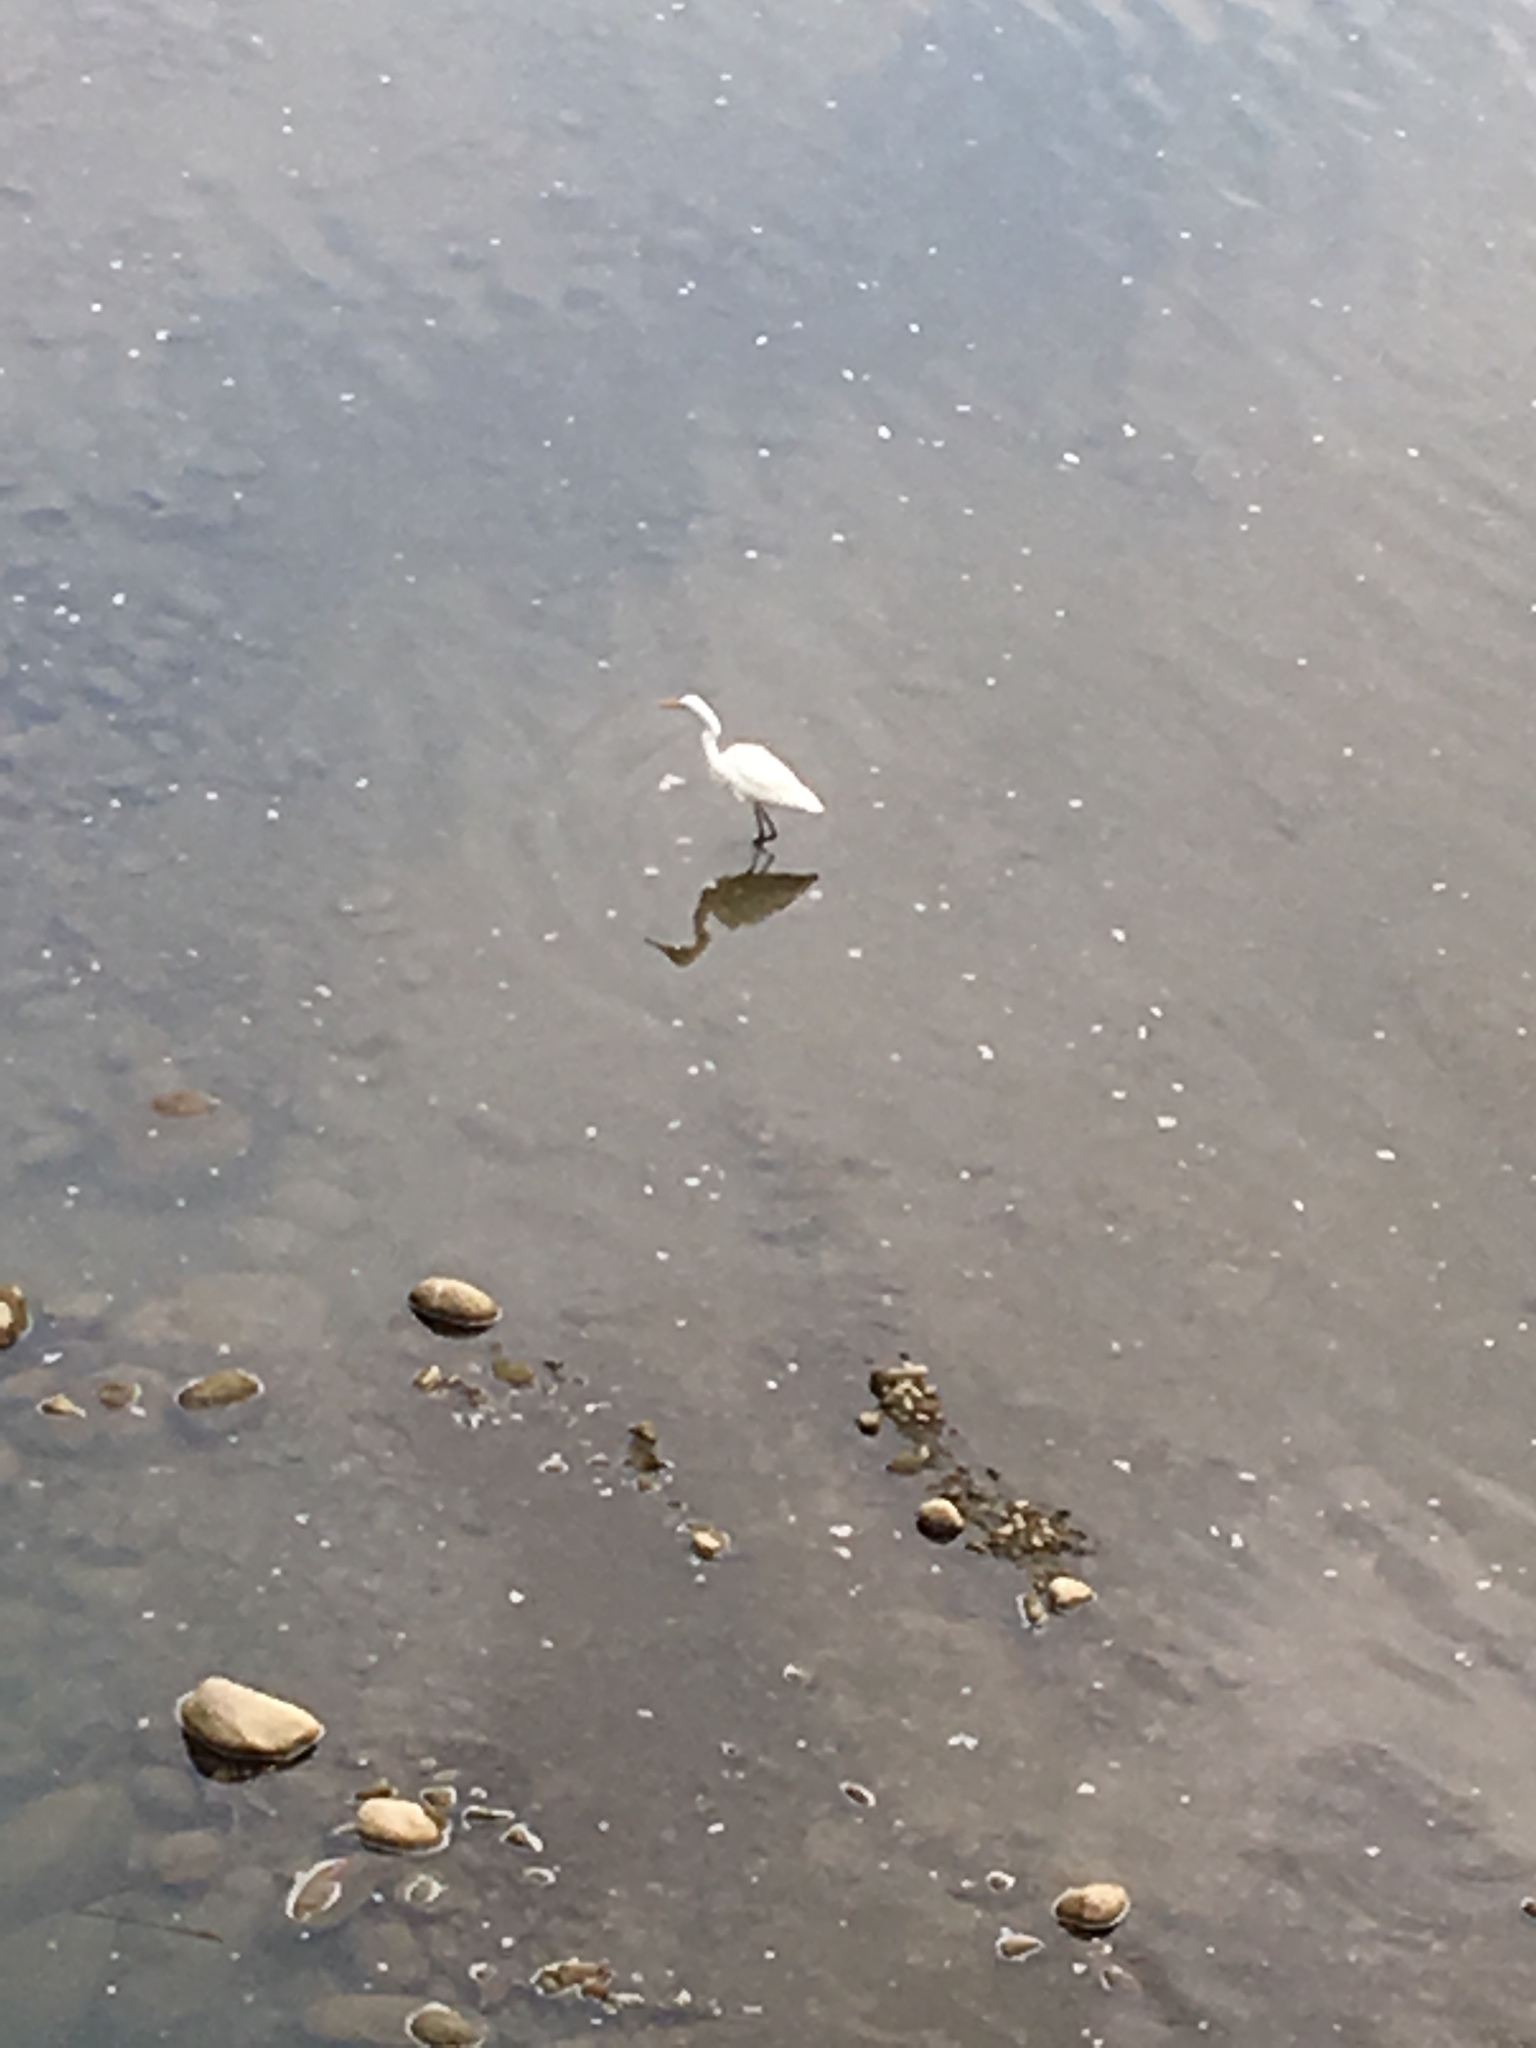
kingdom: Animalia
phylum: Chordata
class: Aves
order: Pelecaniformes
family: Ardeidae
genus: Ardea
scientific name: Ardea alba
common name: Great egret
